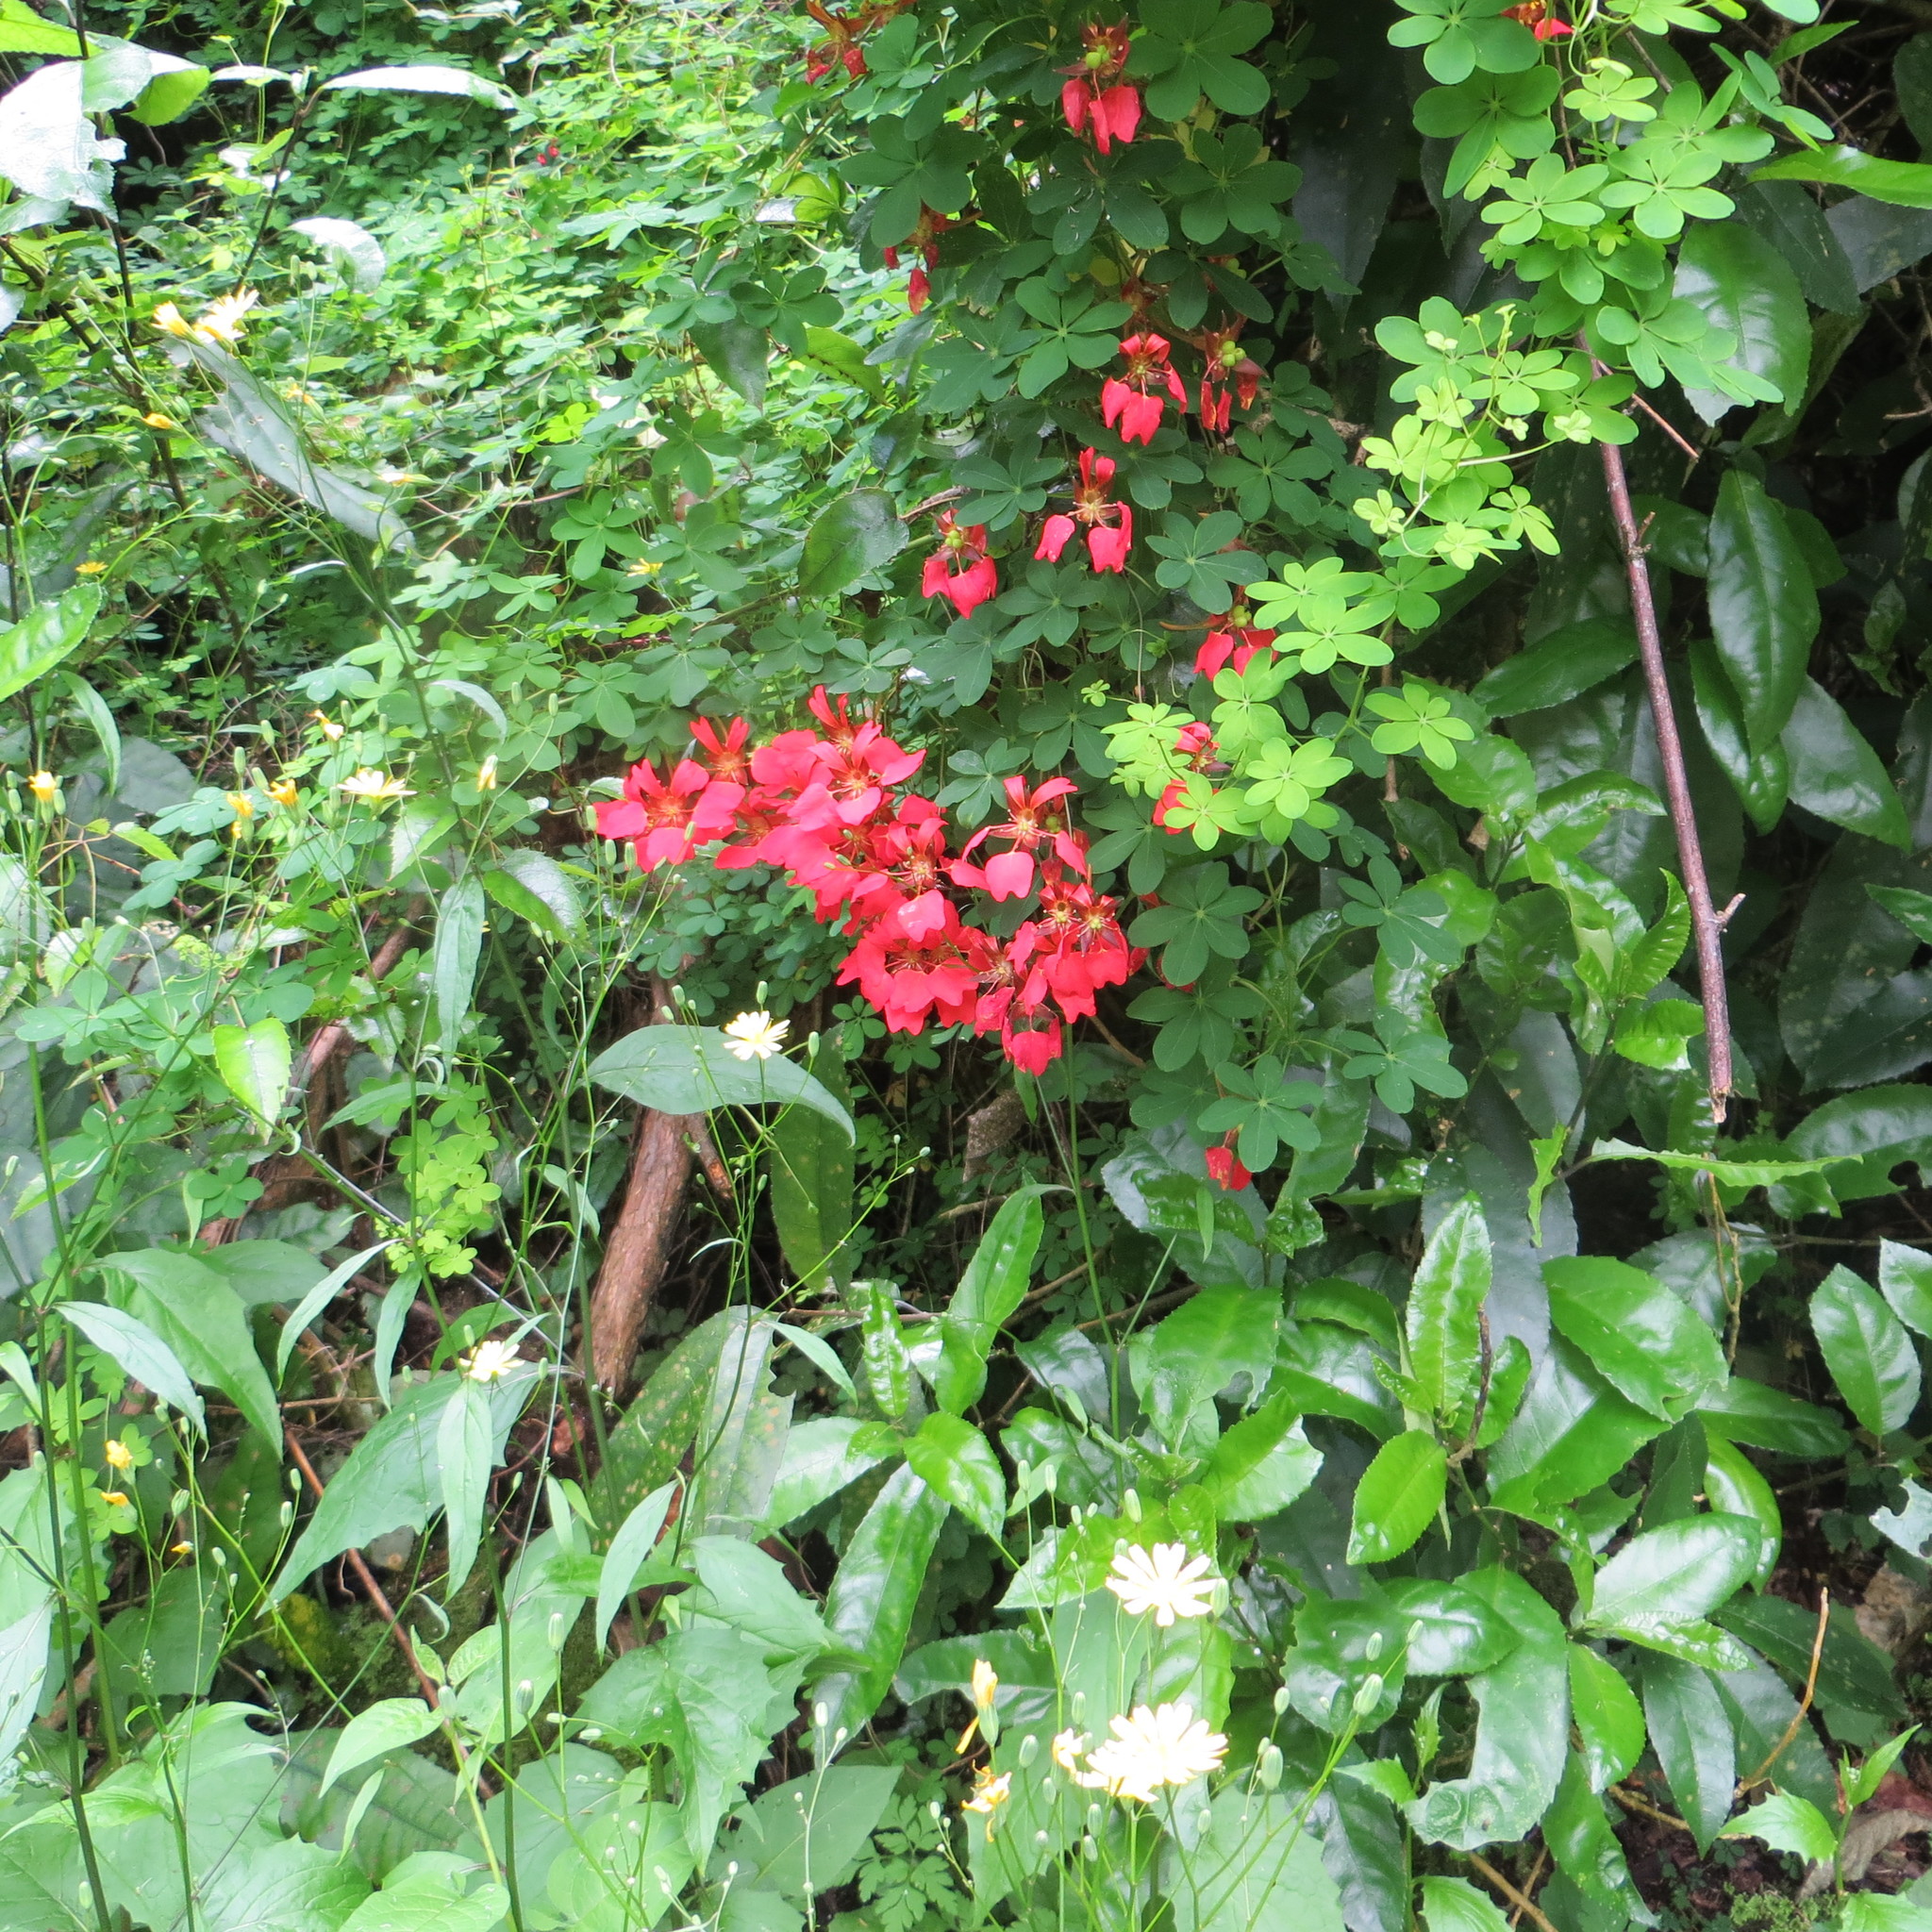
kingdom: Plantae
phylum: Tracheophyta
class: Magnoliopsida
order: Brassicales
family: Tropaeolaceae
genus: Tropaeolum
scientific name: Tropaeolum speciosum
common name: Flame nasturtium
